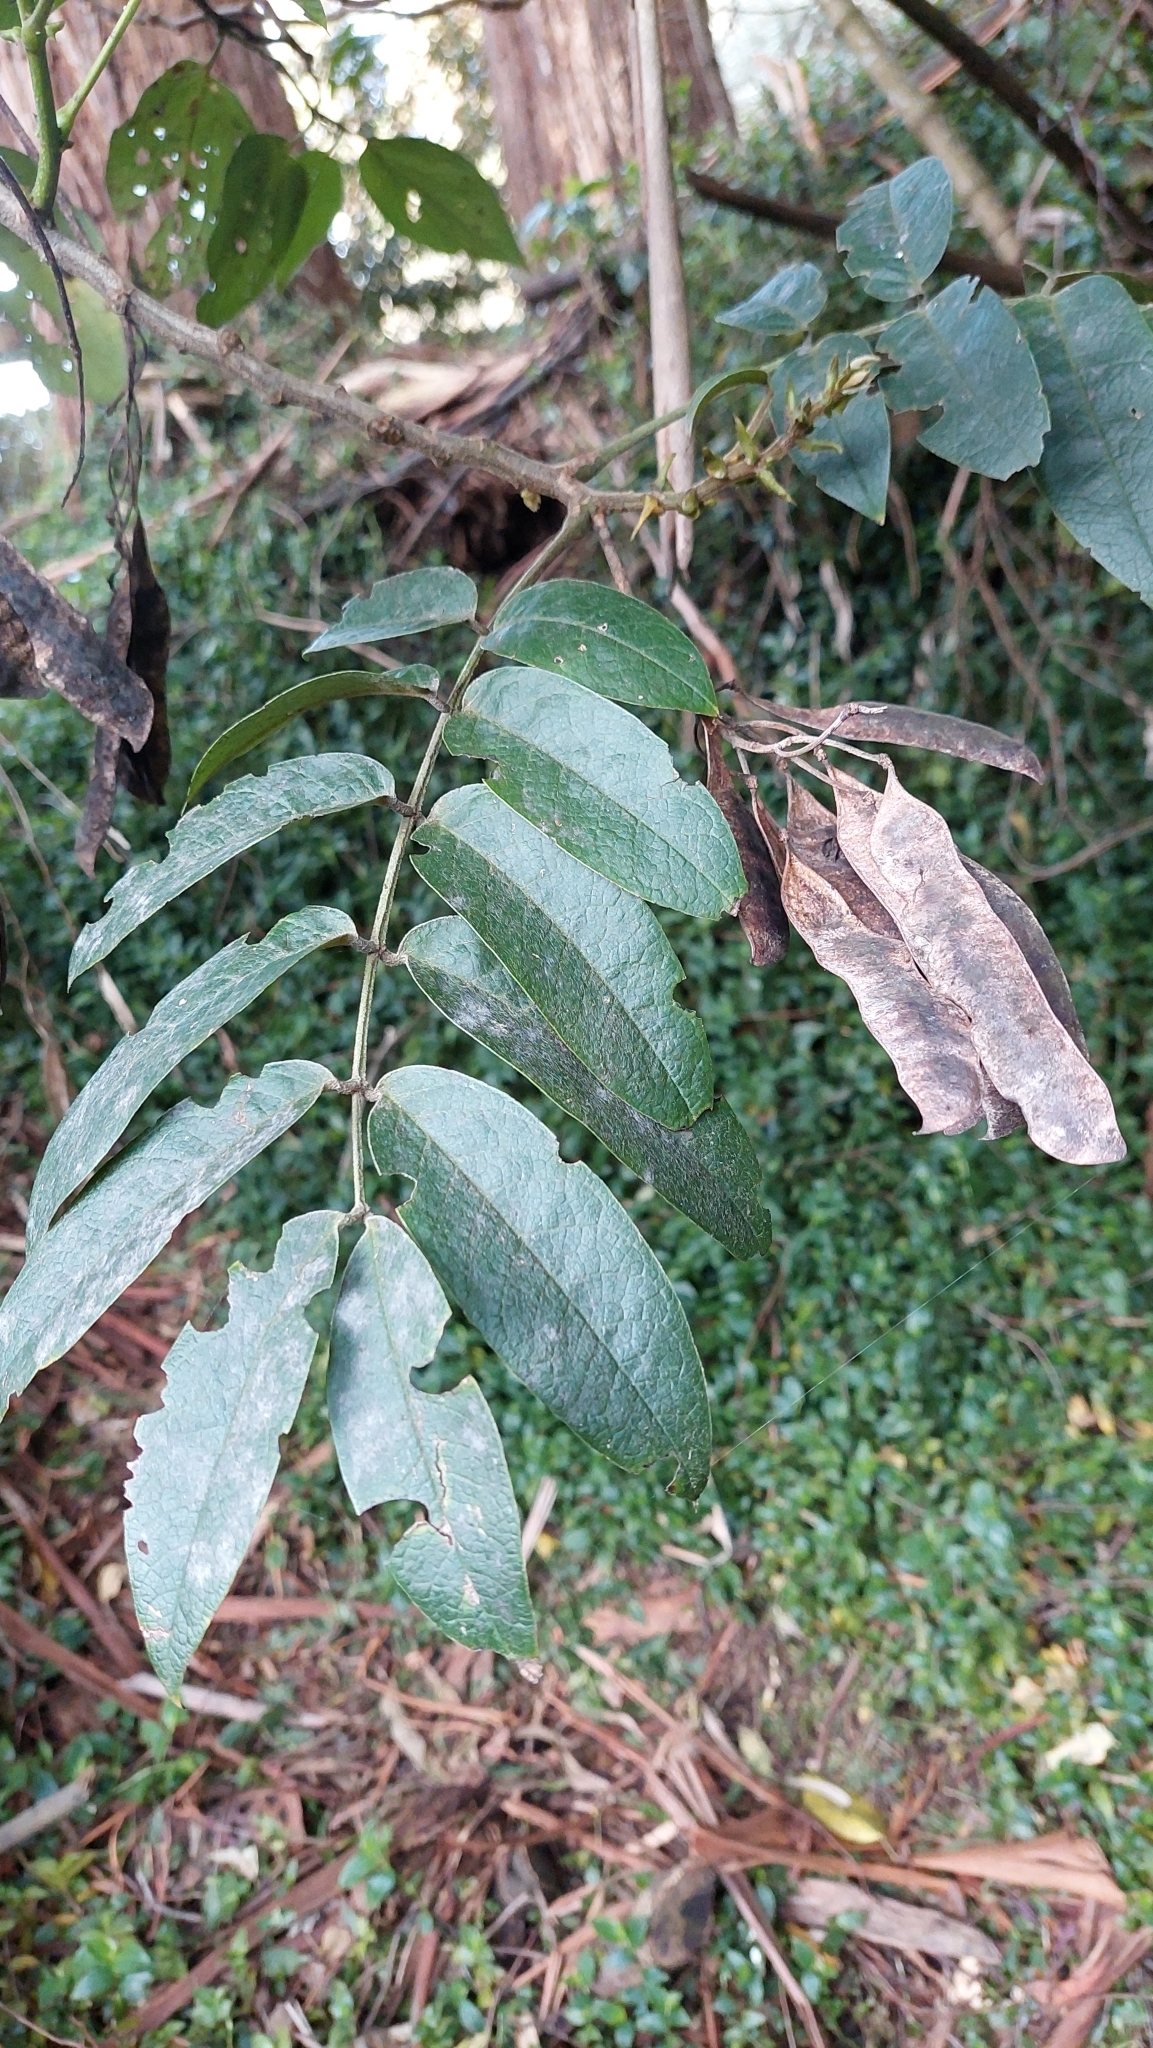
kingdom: Plantae
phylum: Tracheophyta
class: Magnoliopsida
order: Fabales
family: Fabaceae
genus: Senna
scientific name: Senna viarum
